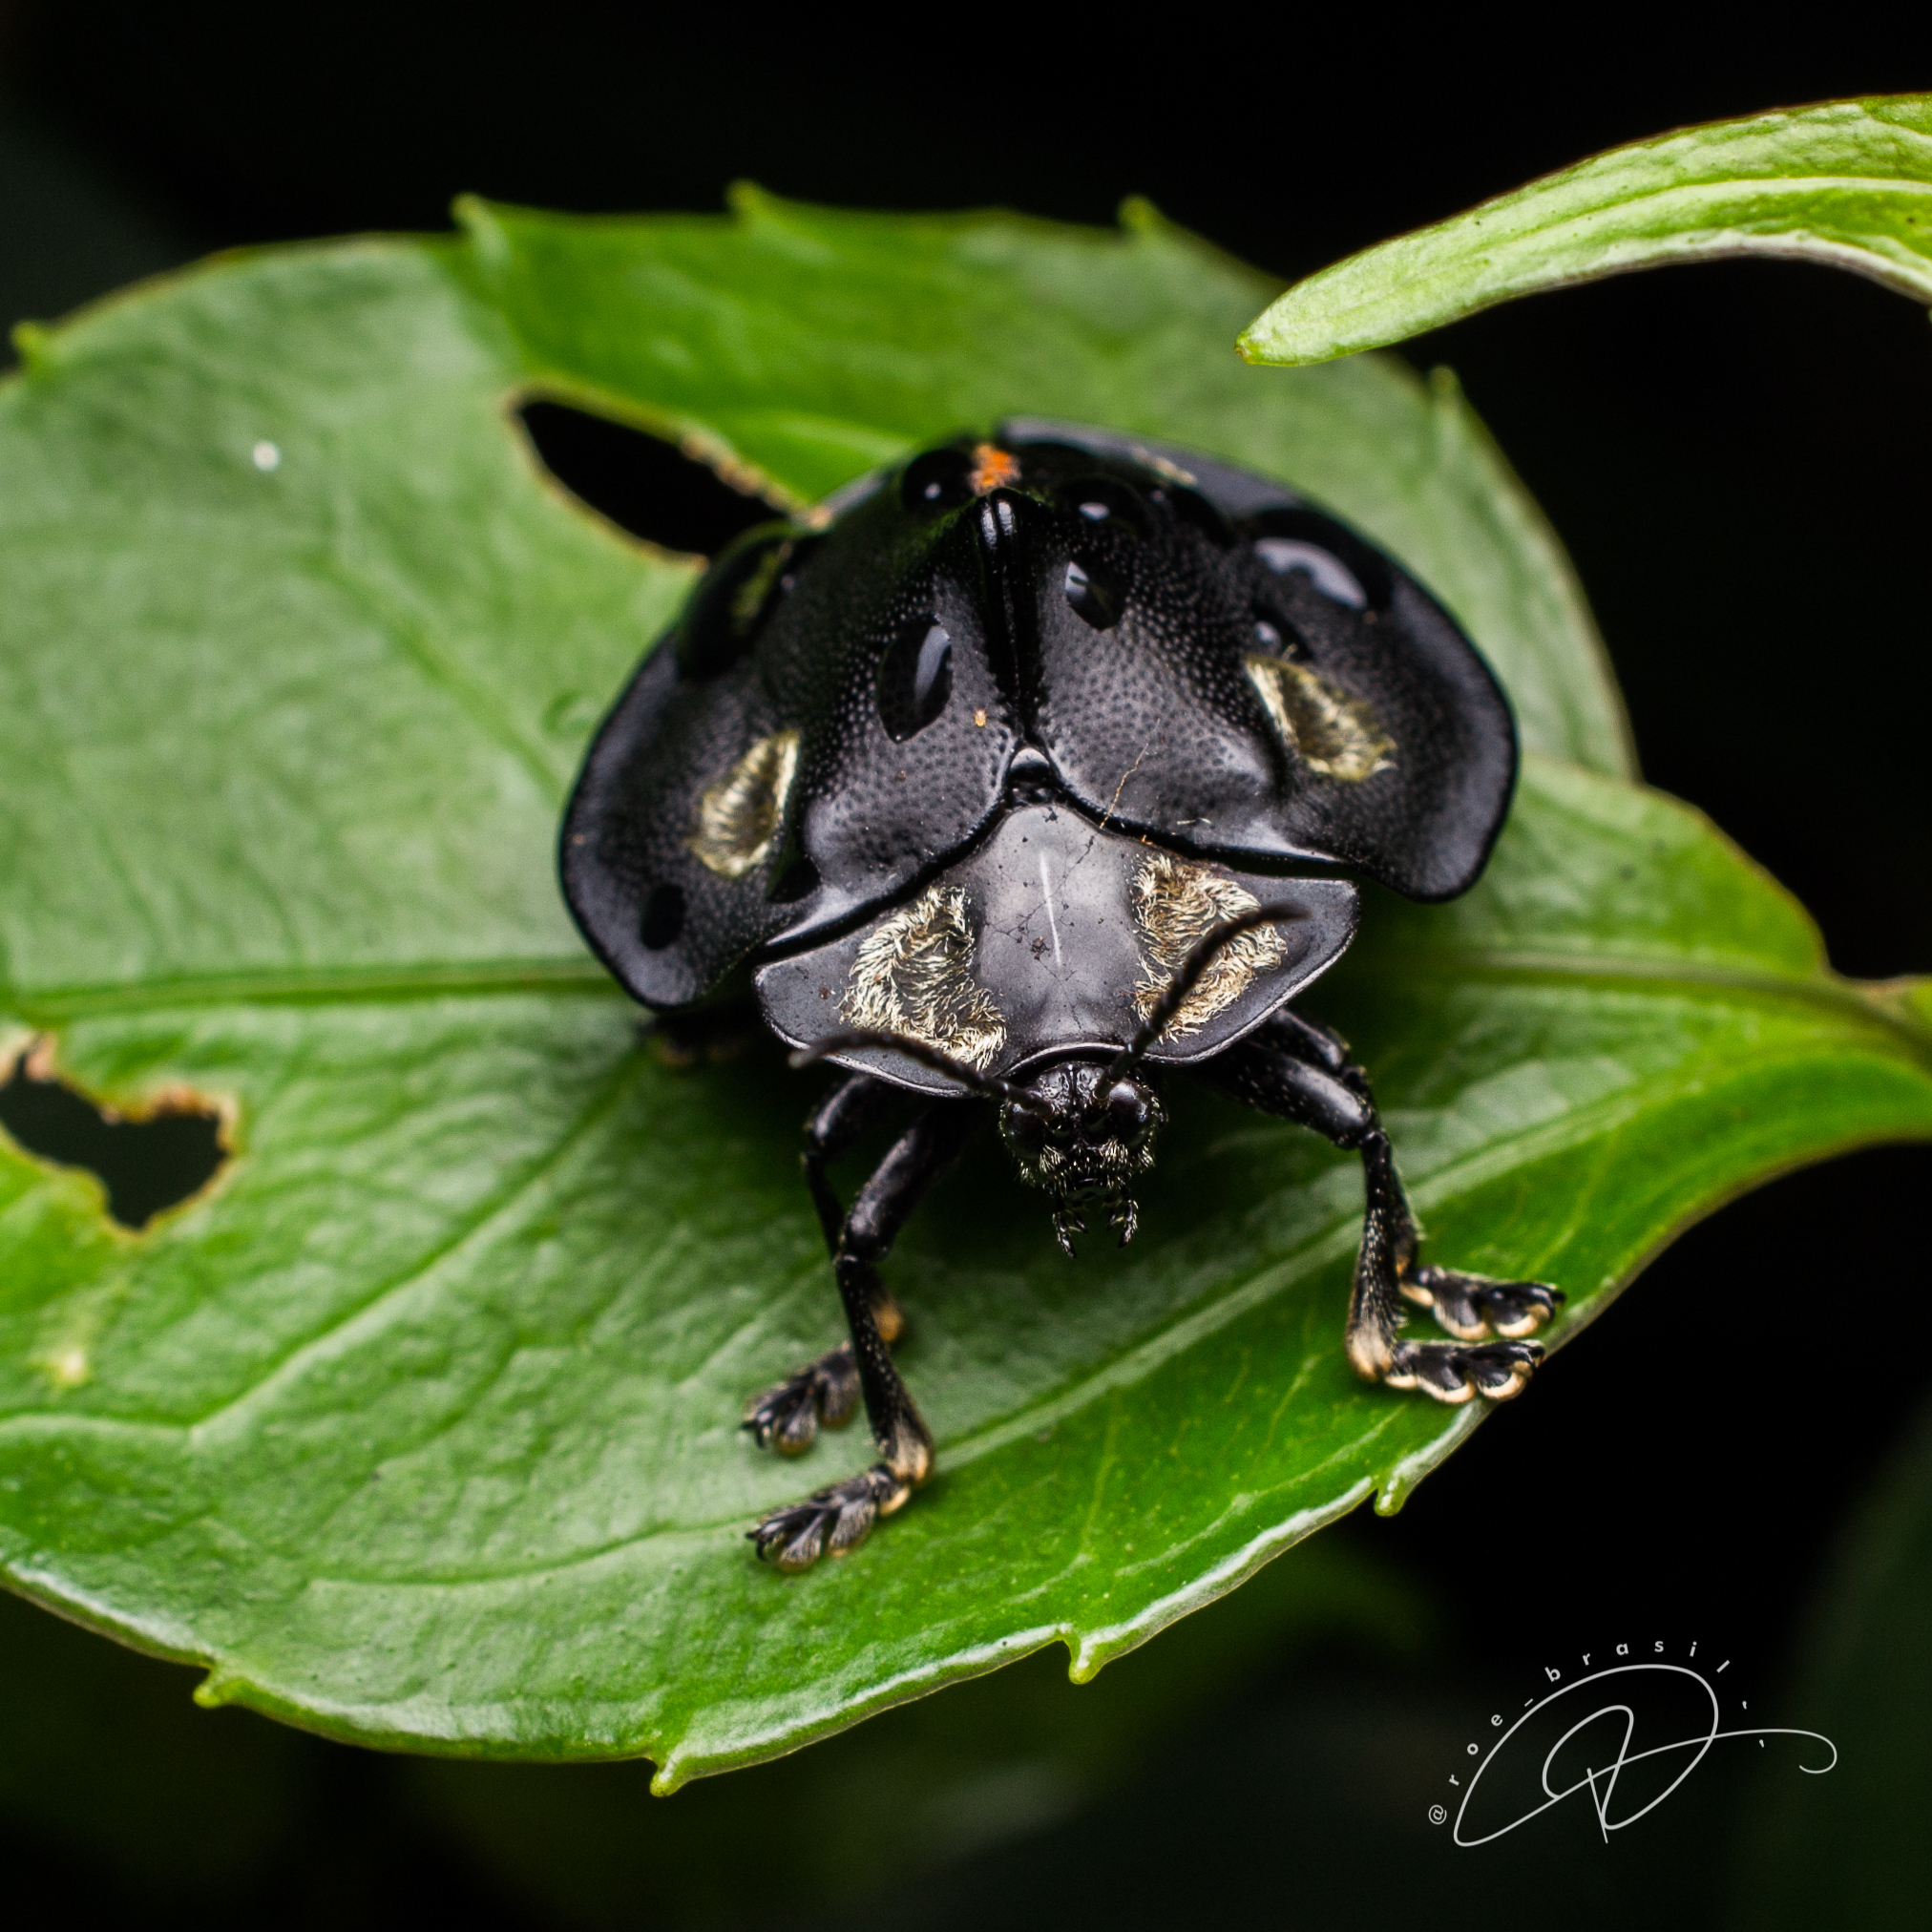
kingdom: Animalia
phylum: Arthropoda
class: Insecta
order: Coleoptera
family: Chrysomelidae
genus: Mesomphalia
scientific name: Mesomphalia turrita
